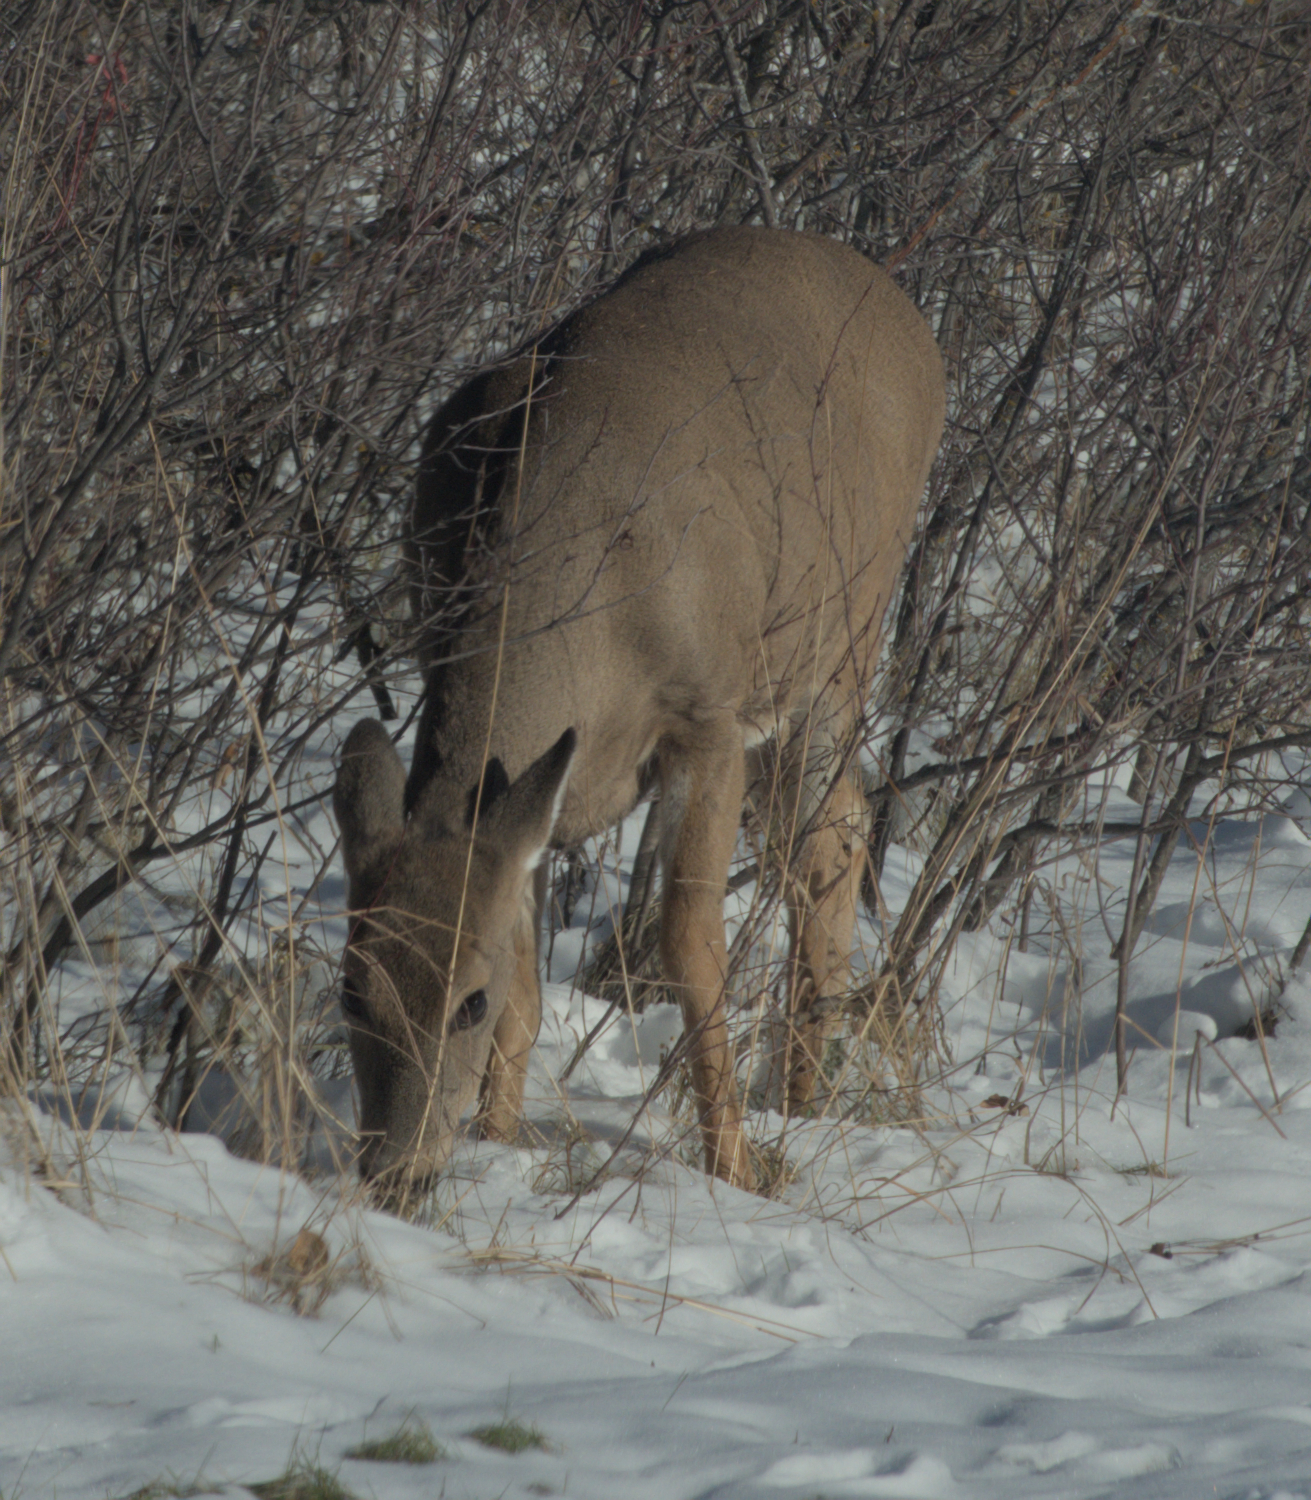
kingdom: Animalia
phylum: Chordata
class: Mammalia
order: Artiodactyla
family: Cervidae
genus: Odocoileus
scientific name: Odocoileus virginianus
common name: White-tailed deer
